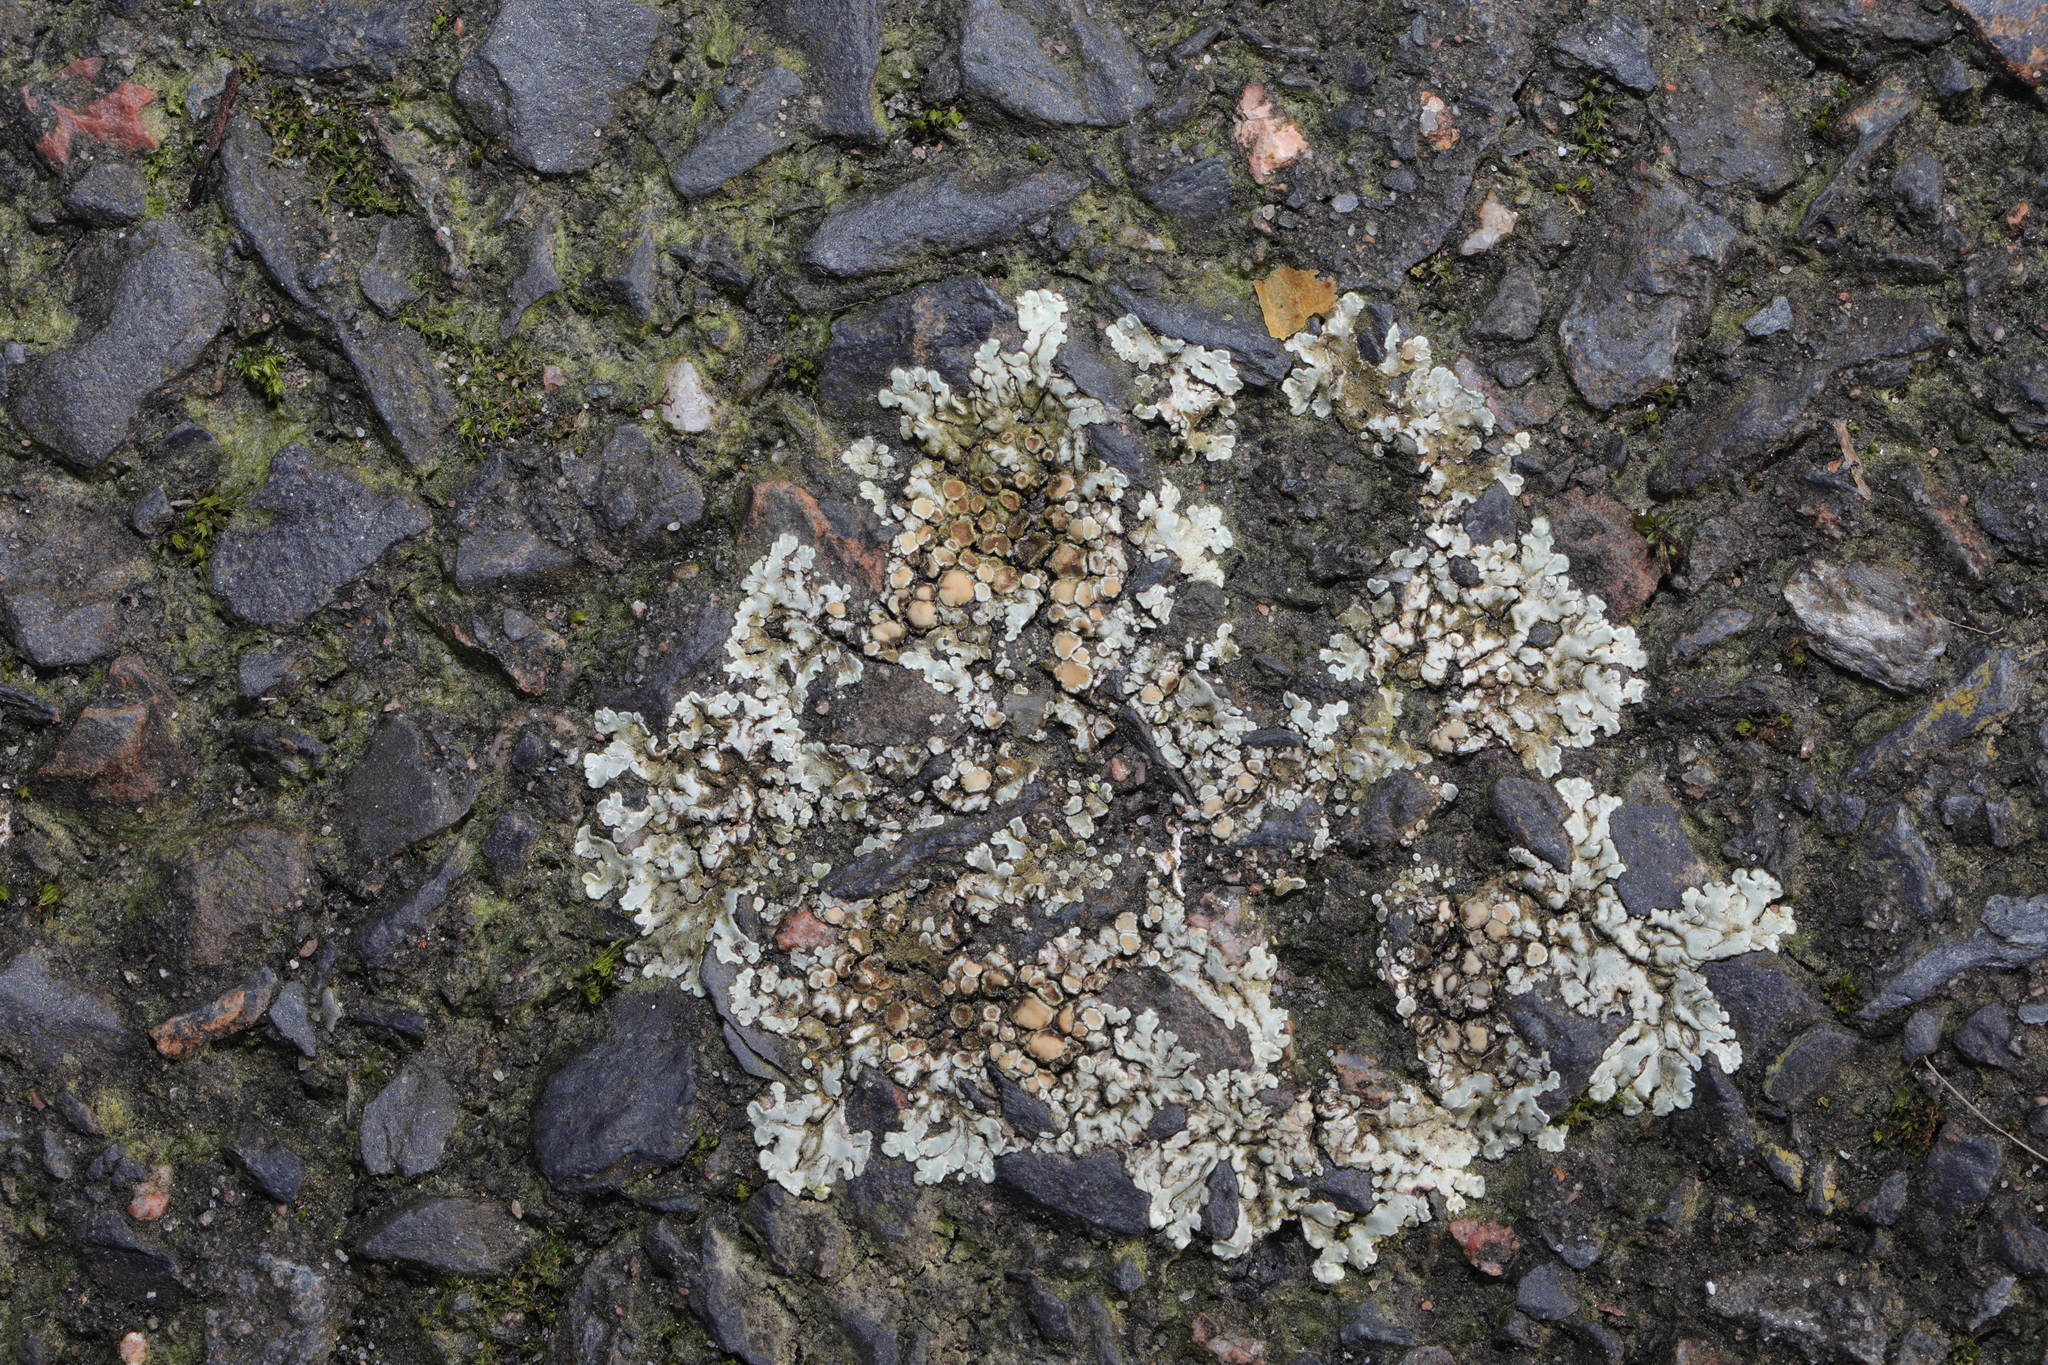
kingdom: Fungi
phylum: Ascomycota
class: Lecanoromycetes
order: Lecanorales
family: Lecanoraceae
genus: Protoparmeliopsis
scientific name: Protoparmeliopsis muralis
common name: Stonewall rim lichen
